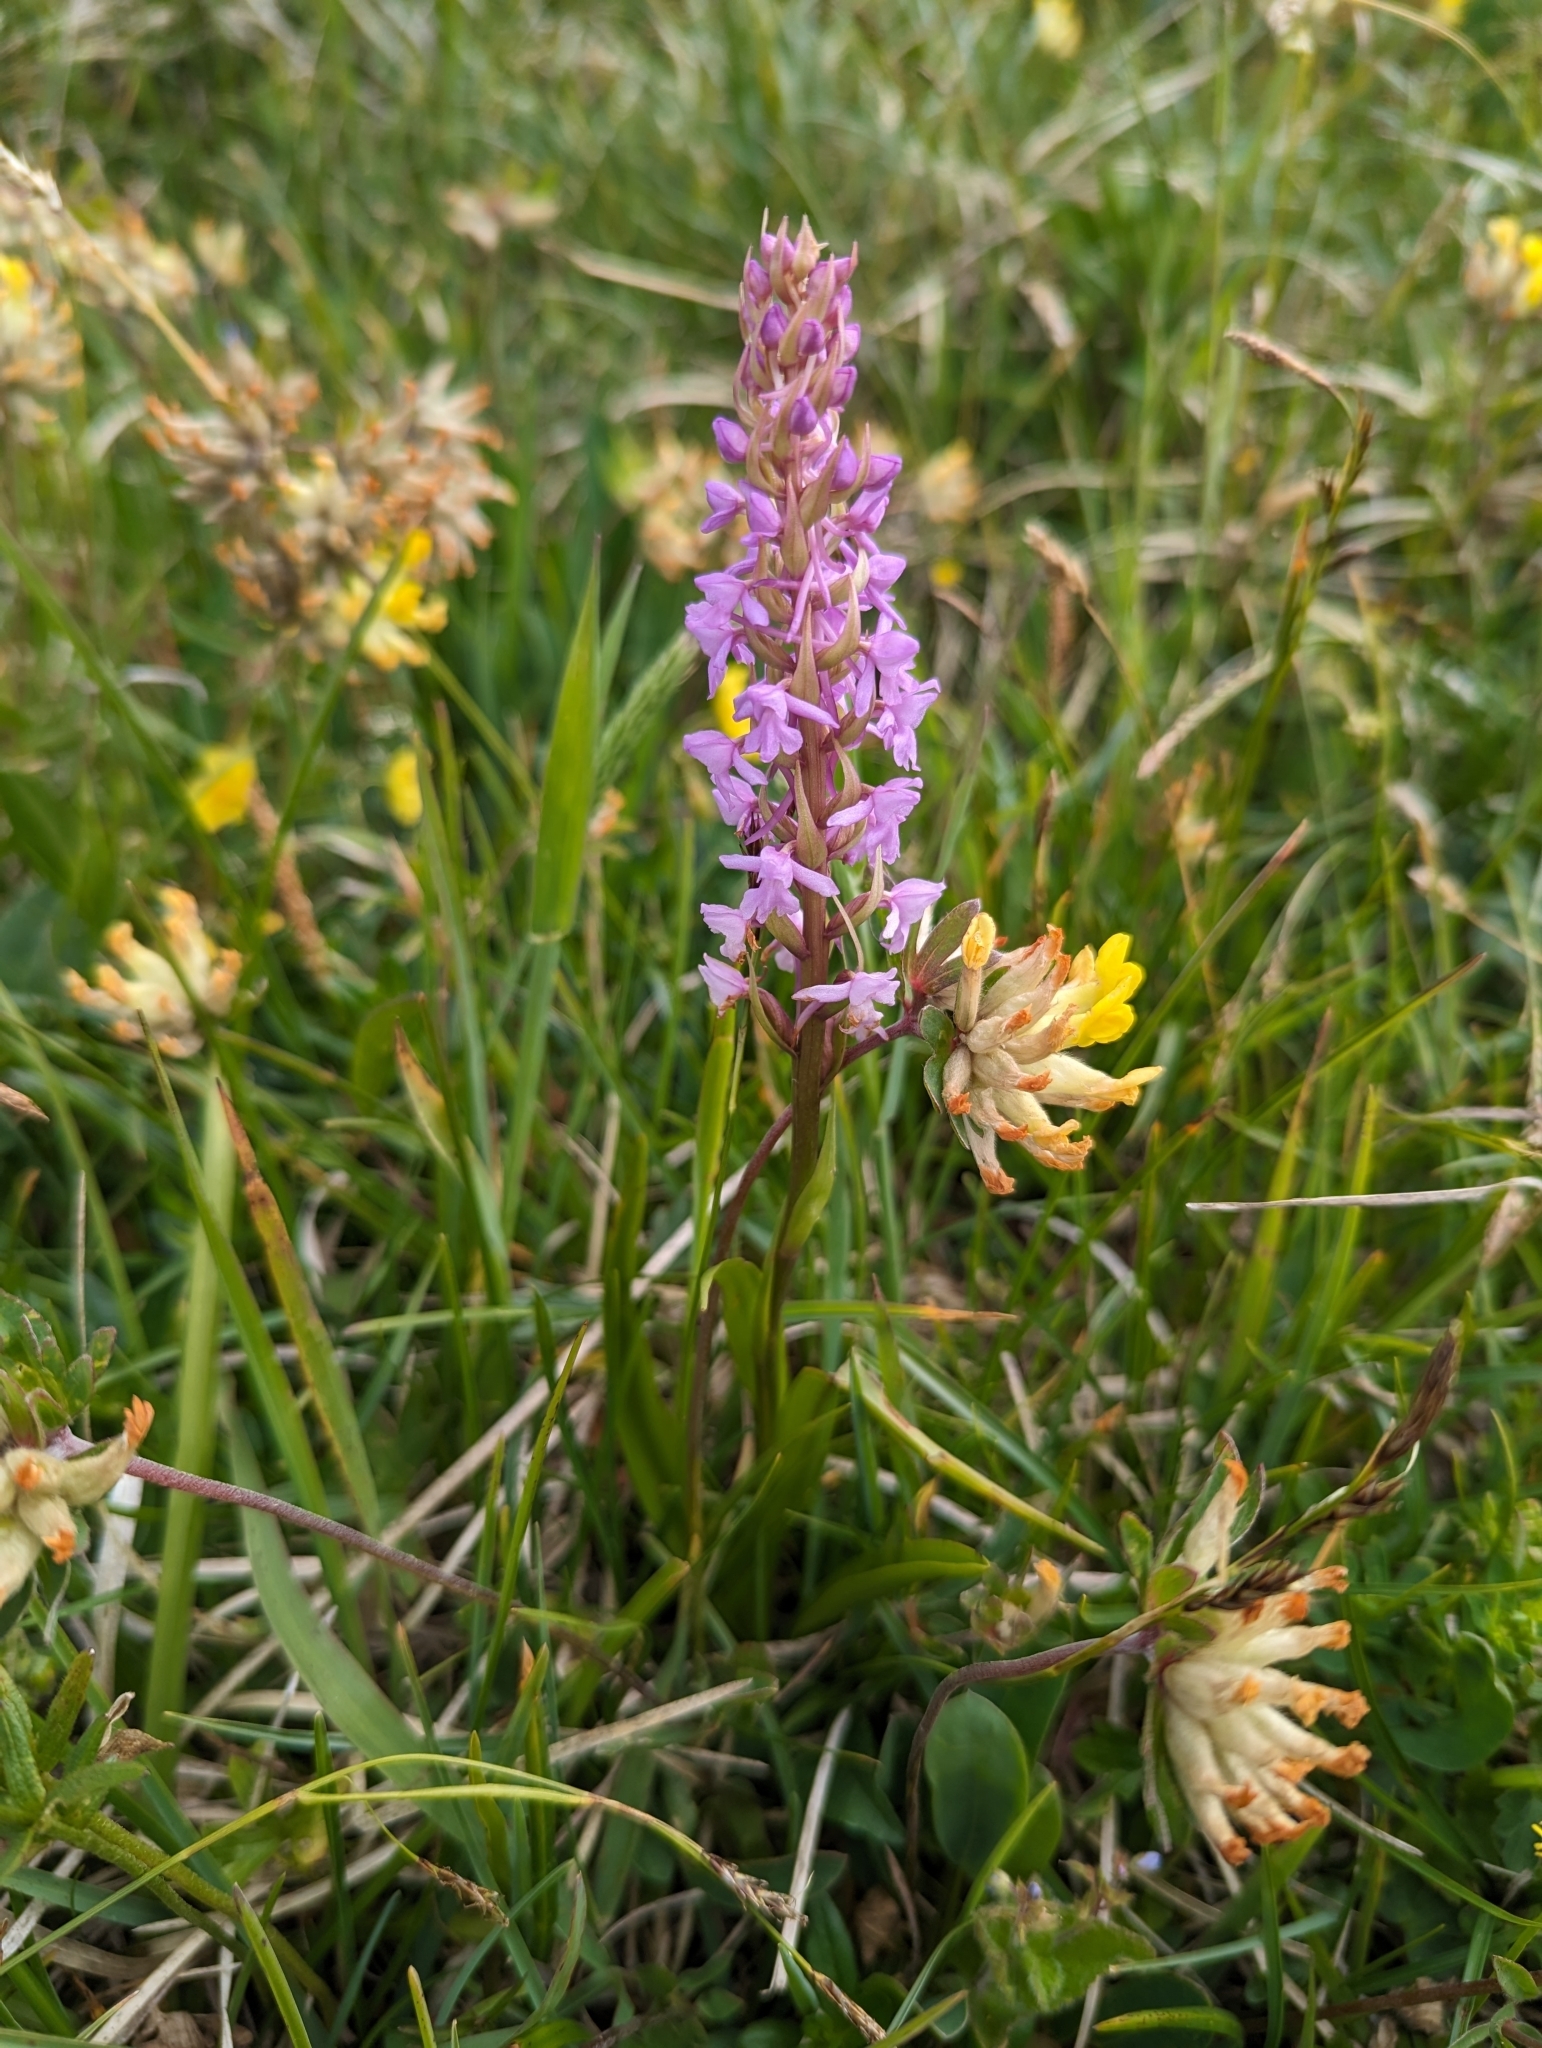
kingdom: Plantae
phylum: Tracheophyta
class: Liliopsida
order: Asparagales
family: Orchidaceae
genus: Gymnadenia
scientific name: Gymnadenia conopsea
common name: Fragrant orchid
